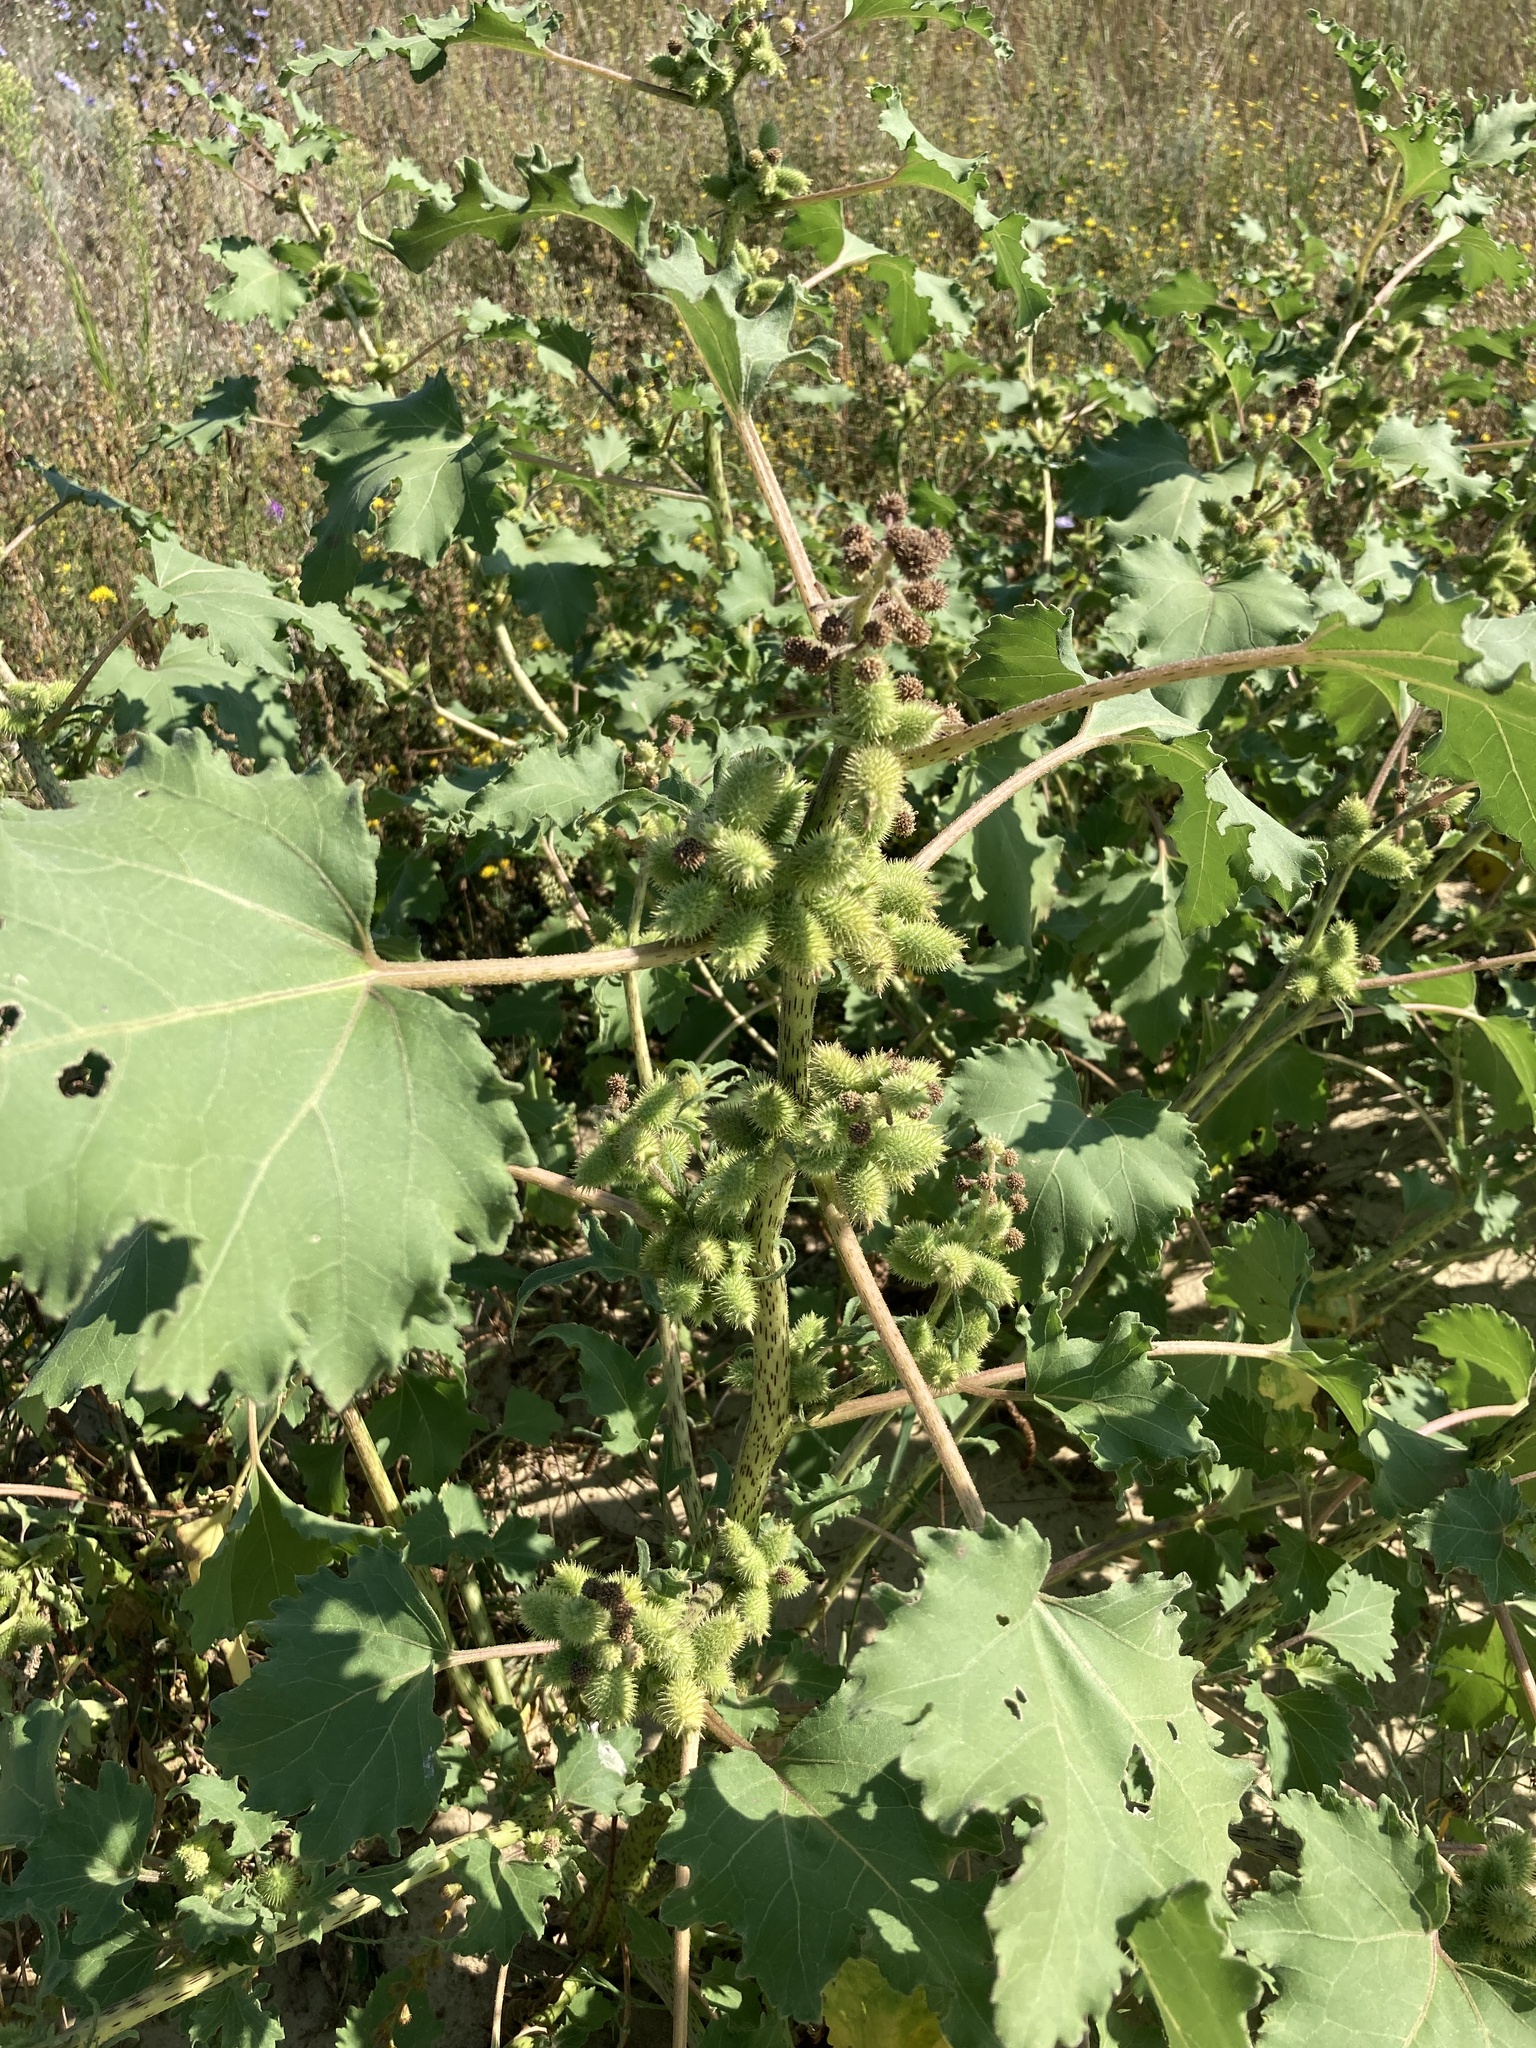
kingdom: Plantae
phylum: Tracheophyta
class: Magnoliopsida
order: Asterales
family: Asteraceae
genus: Xanthium
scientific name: Xanthium orientale
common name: Californian burr
